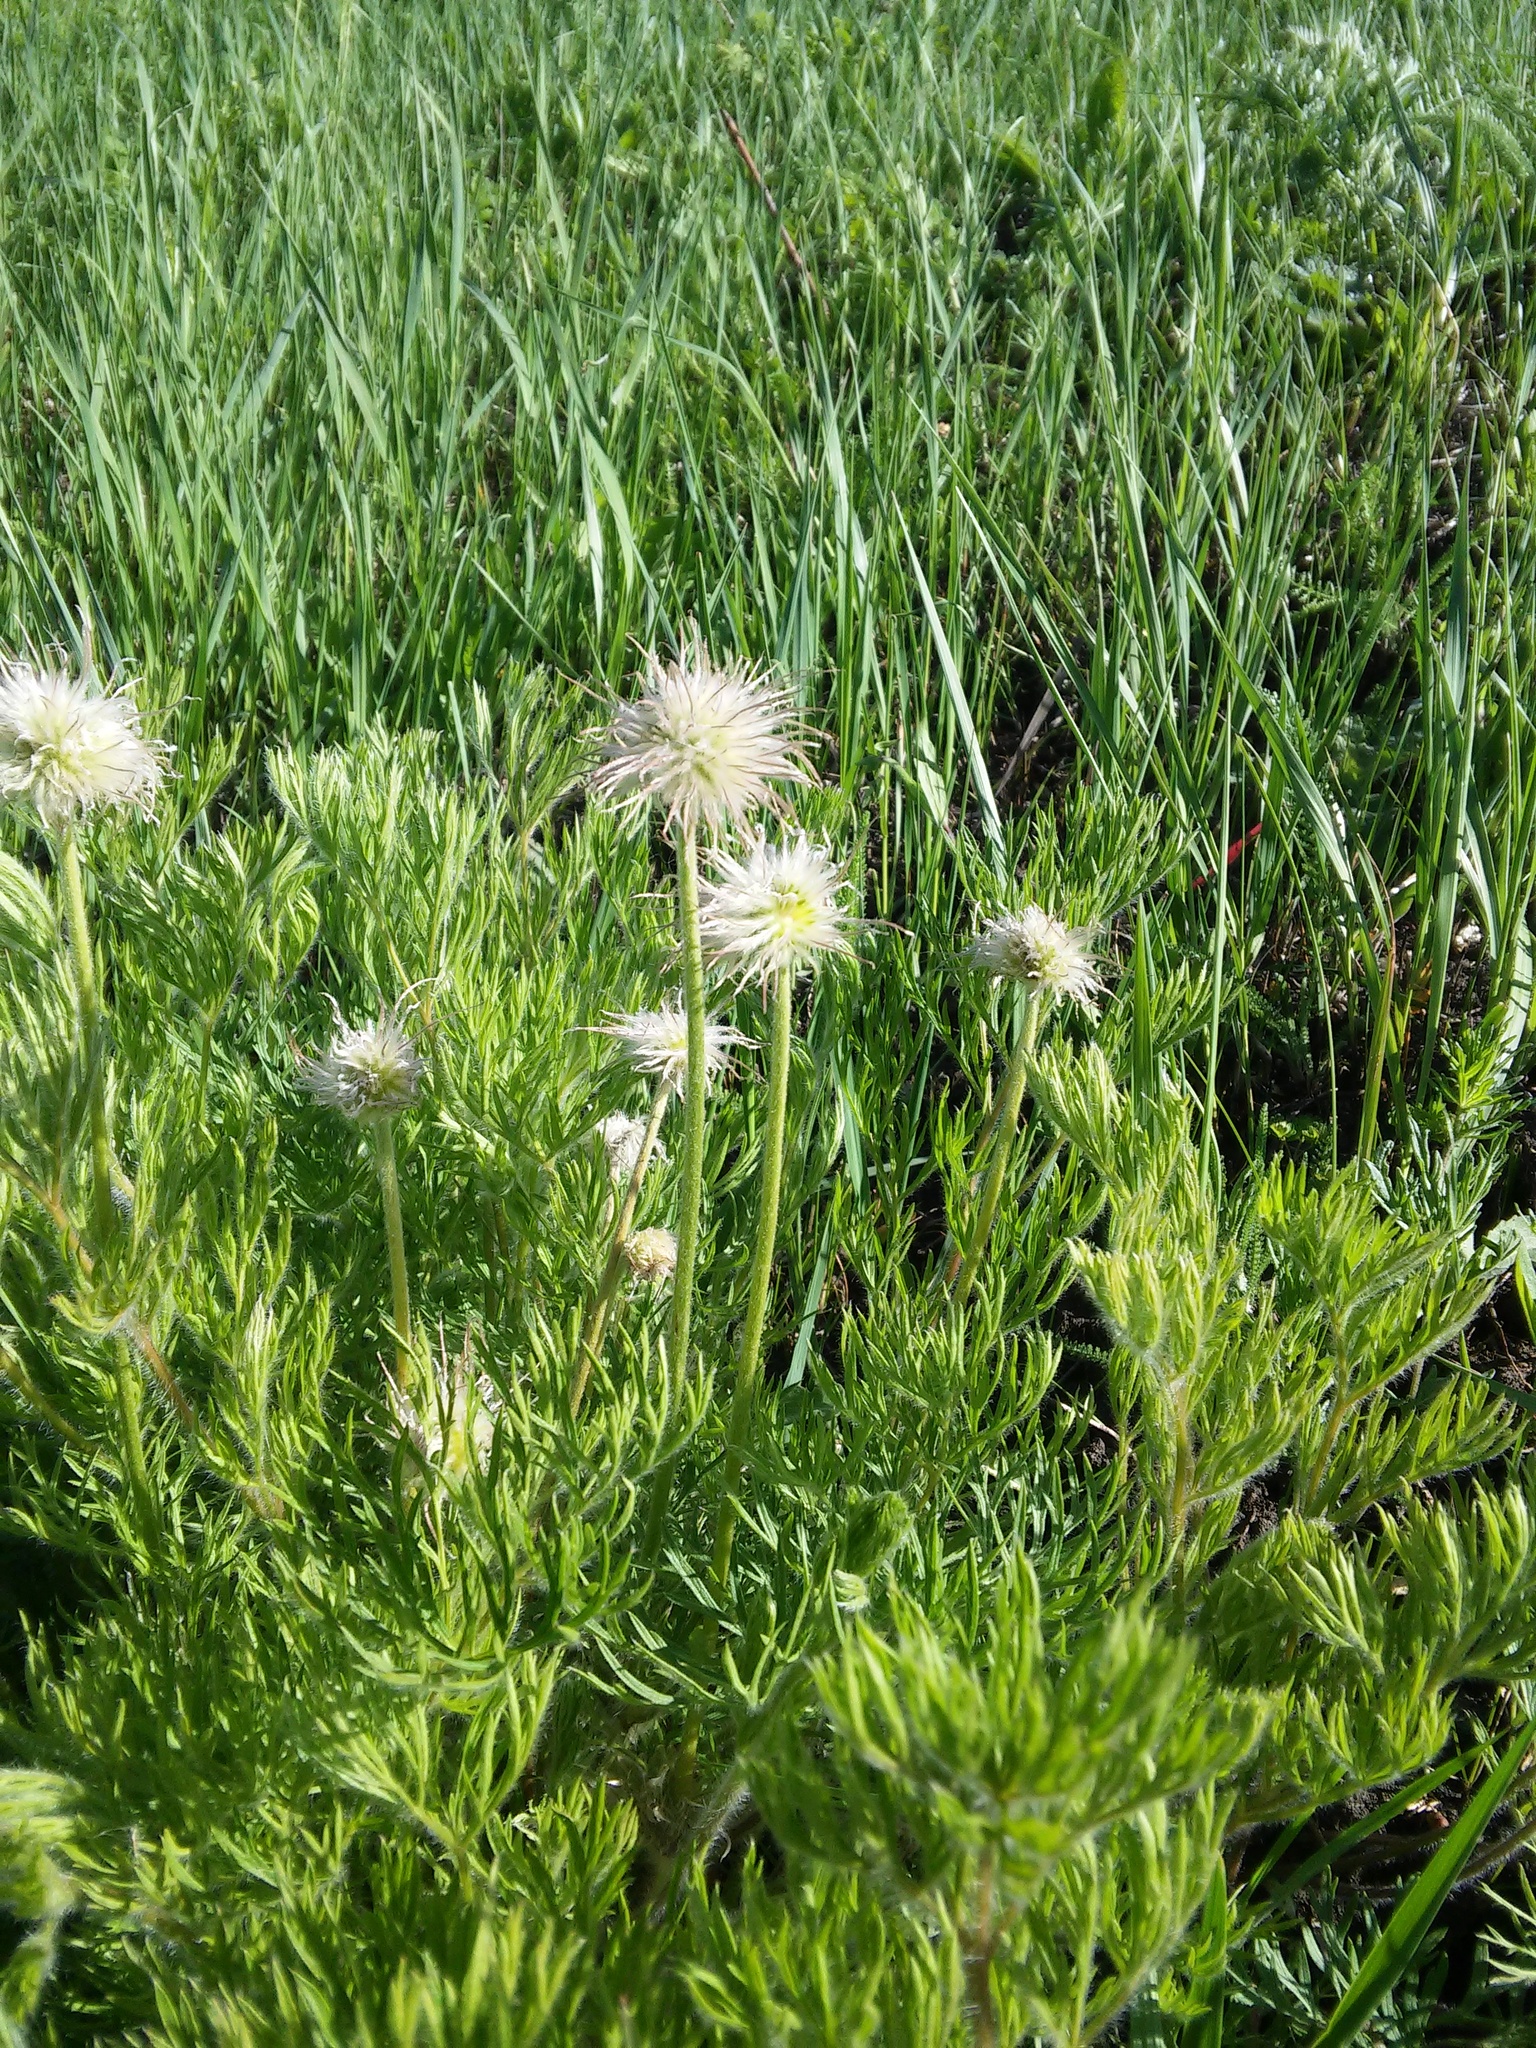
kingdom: Plantae
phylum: Tracheophyta
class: Magnoliopsida
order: Ranunculales
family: Ranunculaceae
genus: Pulsatilla
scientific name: Pulsatilla pratensis
